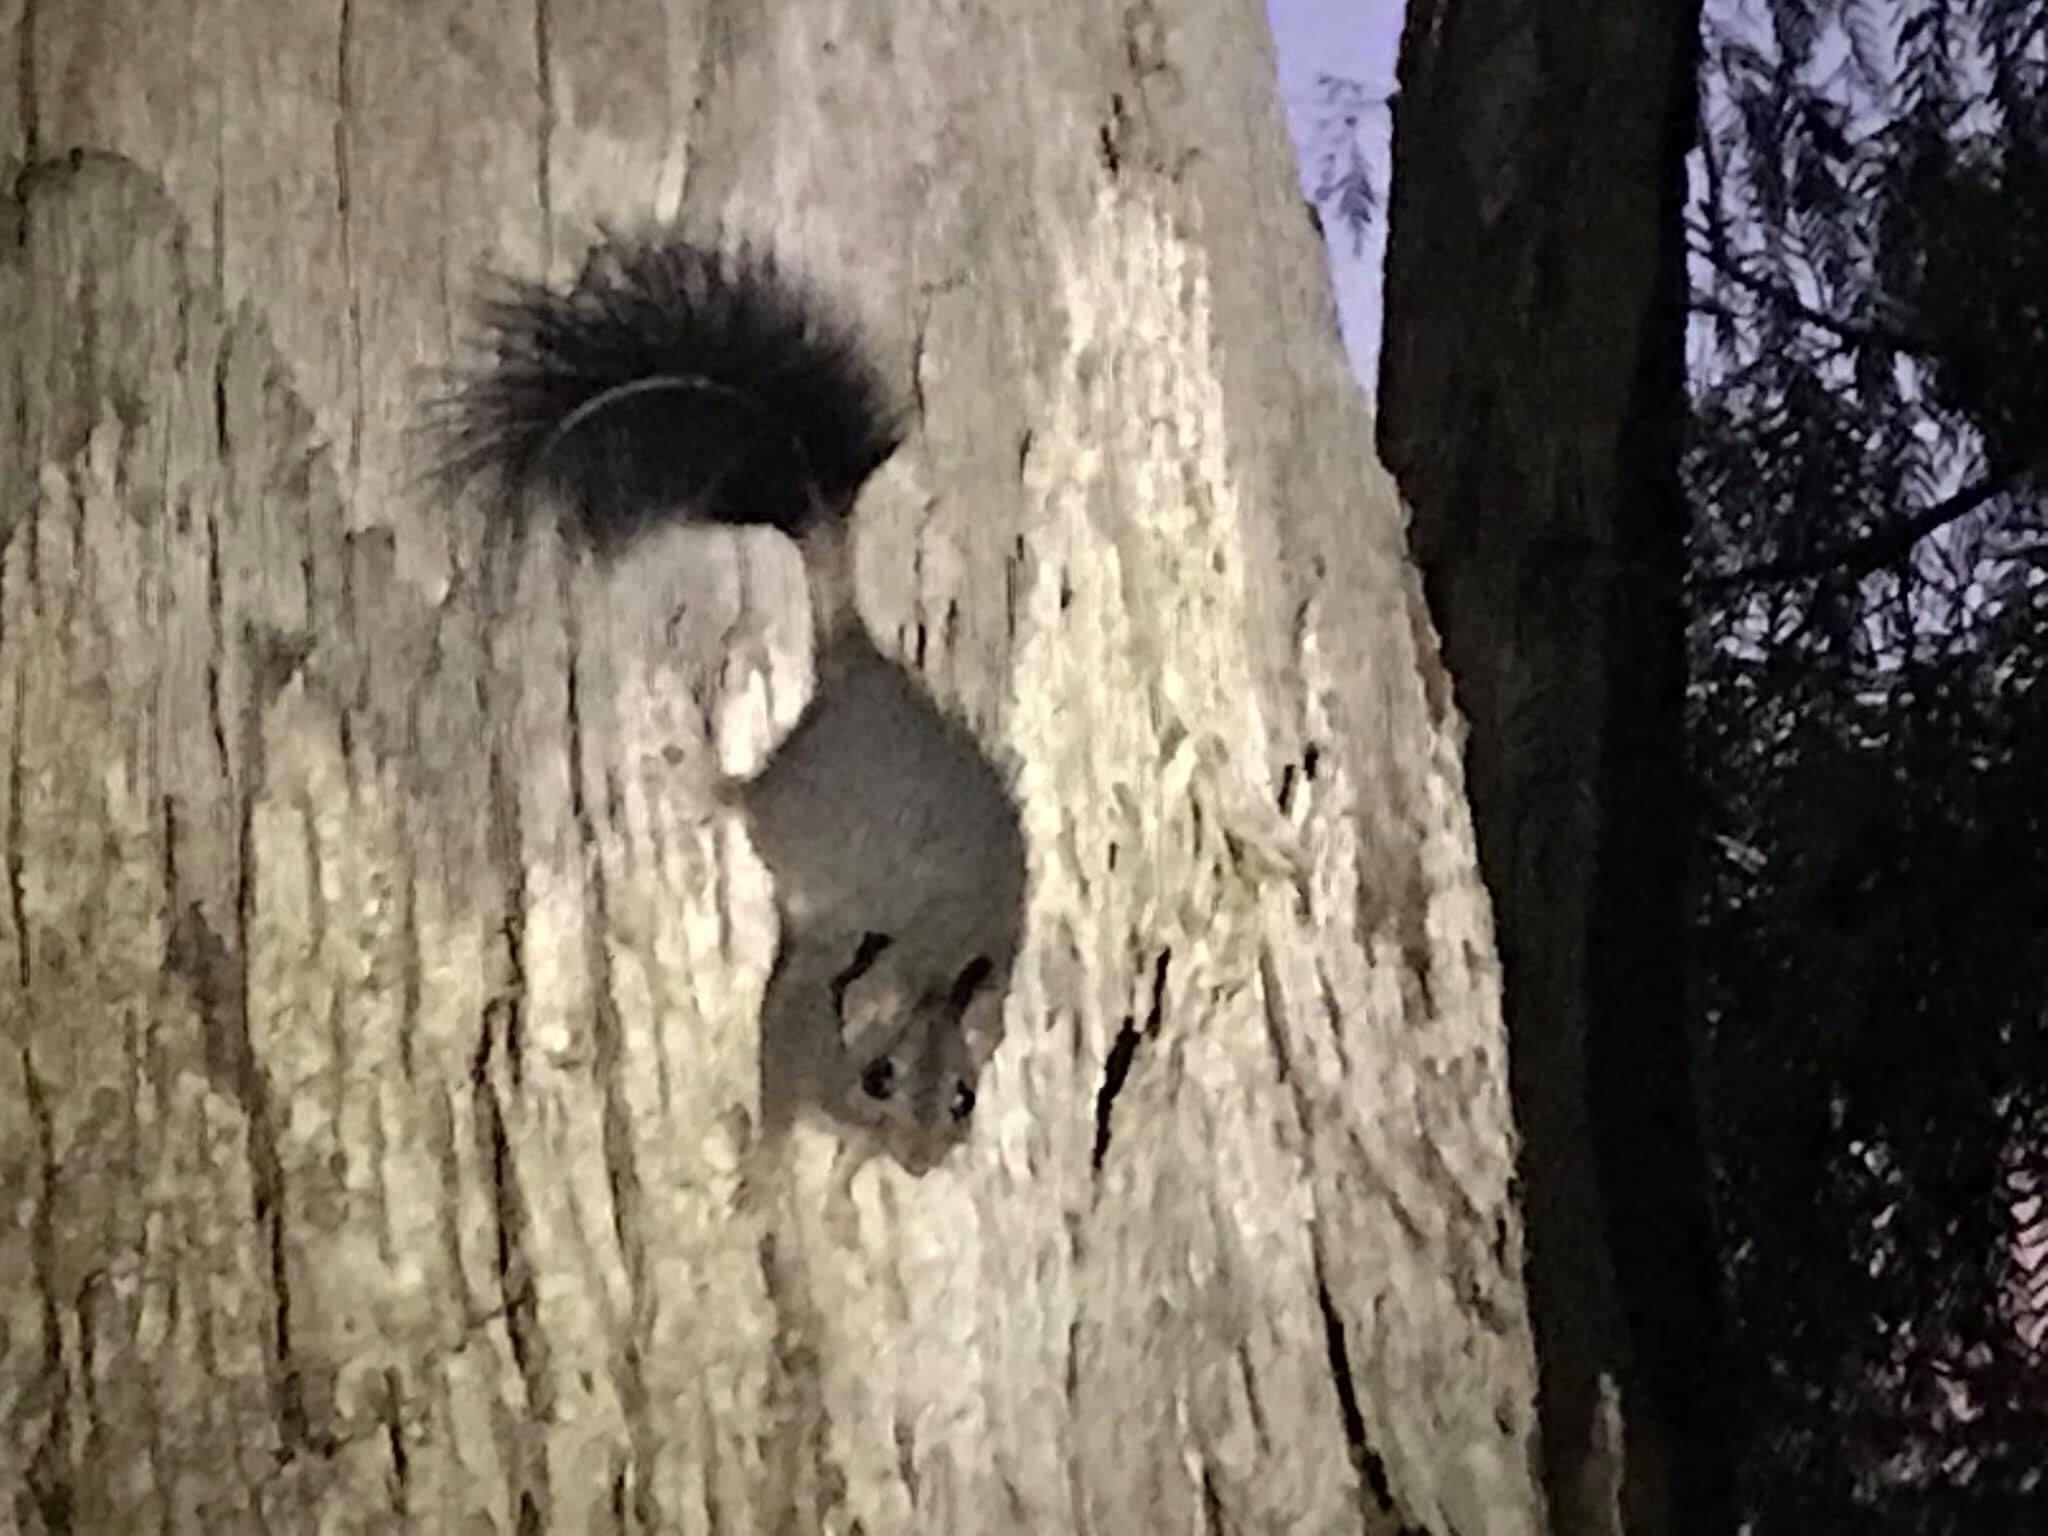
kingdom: Animalia
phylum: Chordata
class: Mammalia
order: Dasyuromorphia
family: Dasyuridae
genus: Phascogale
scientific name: Phascogale tapoatafa
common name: Brush-tailed phascogale
